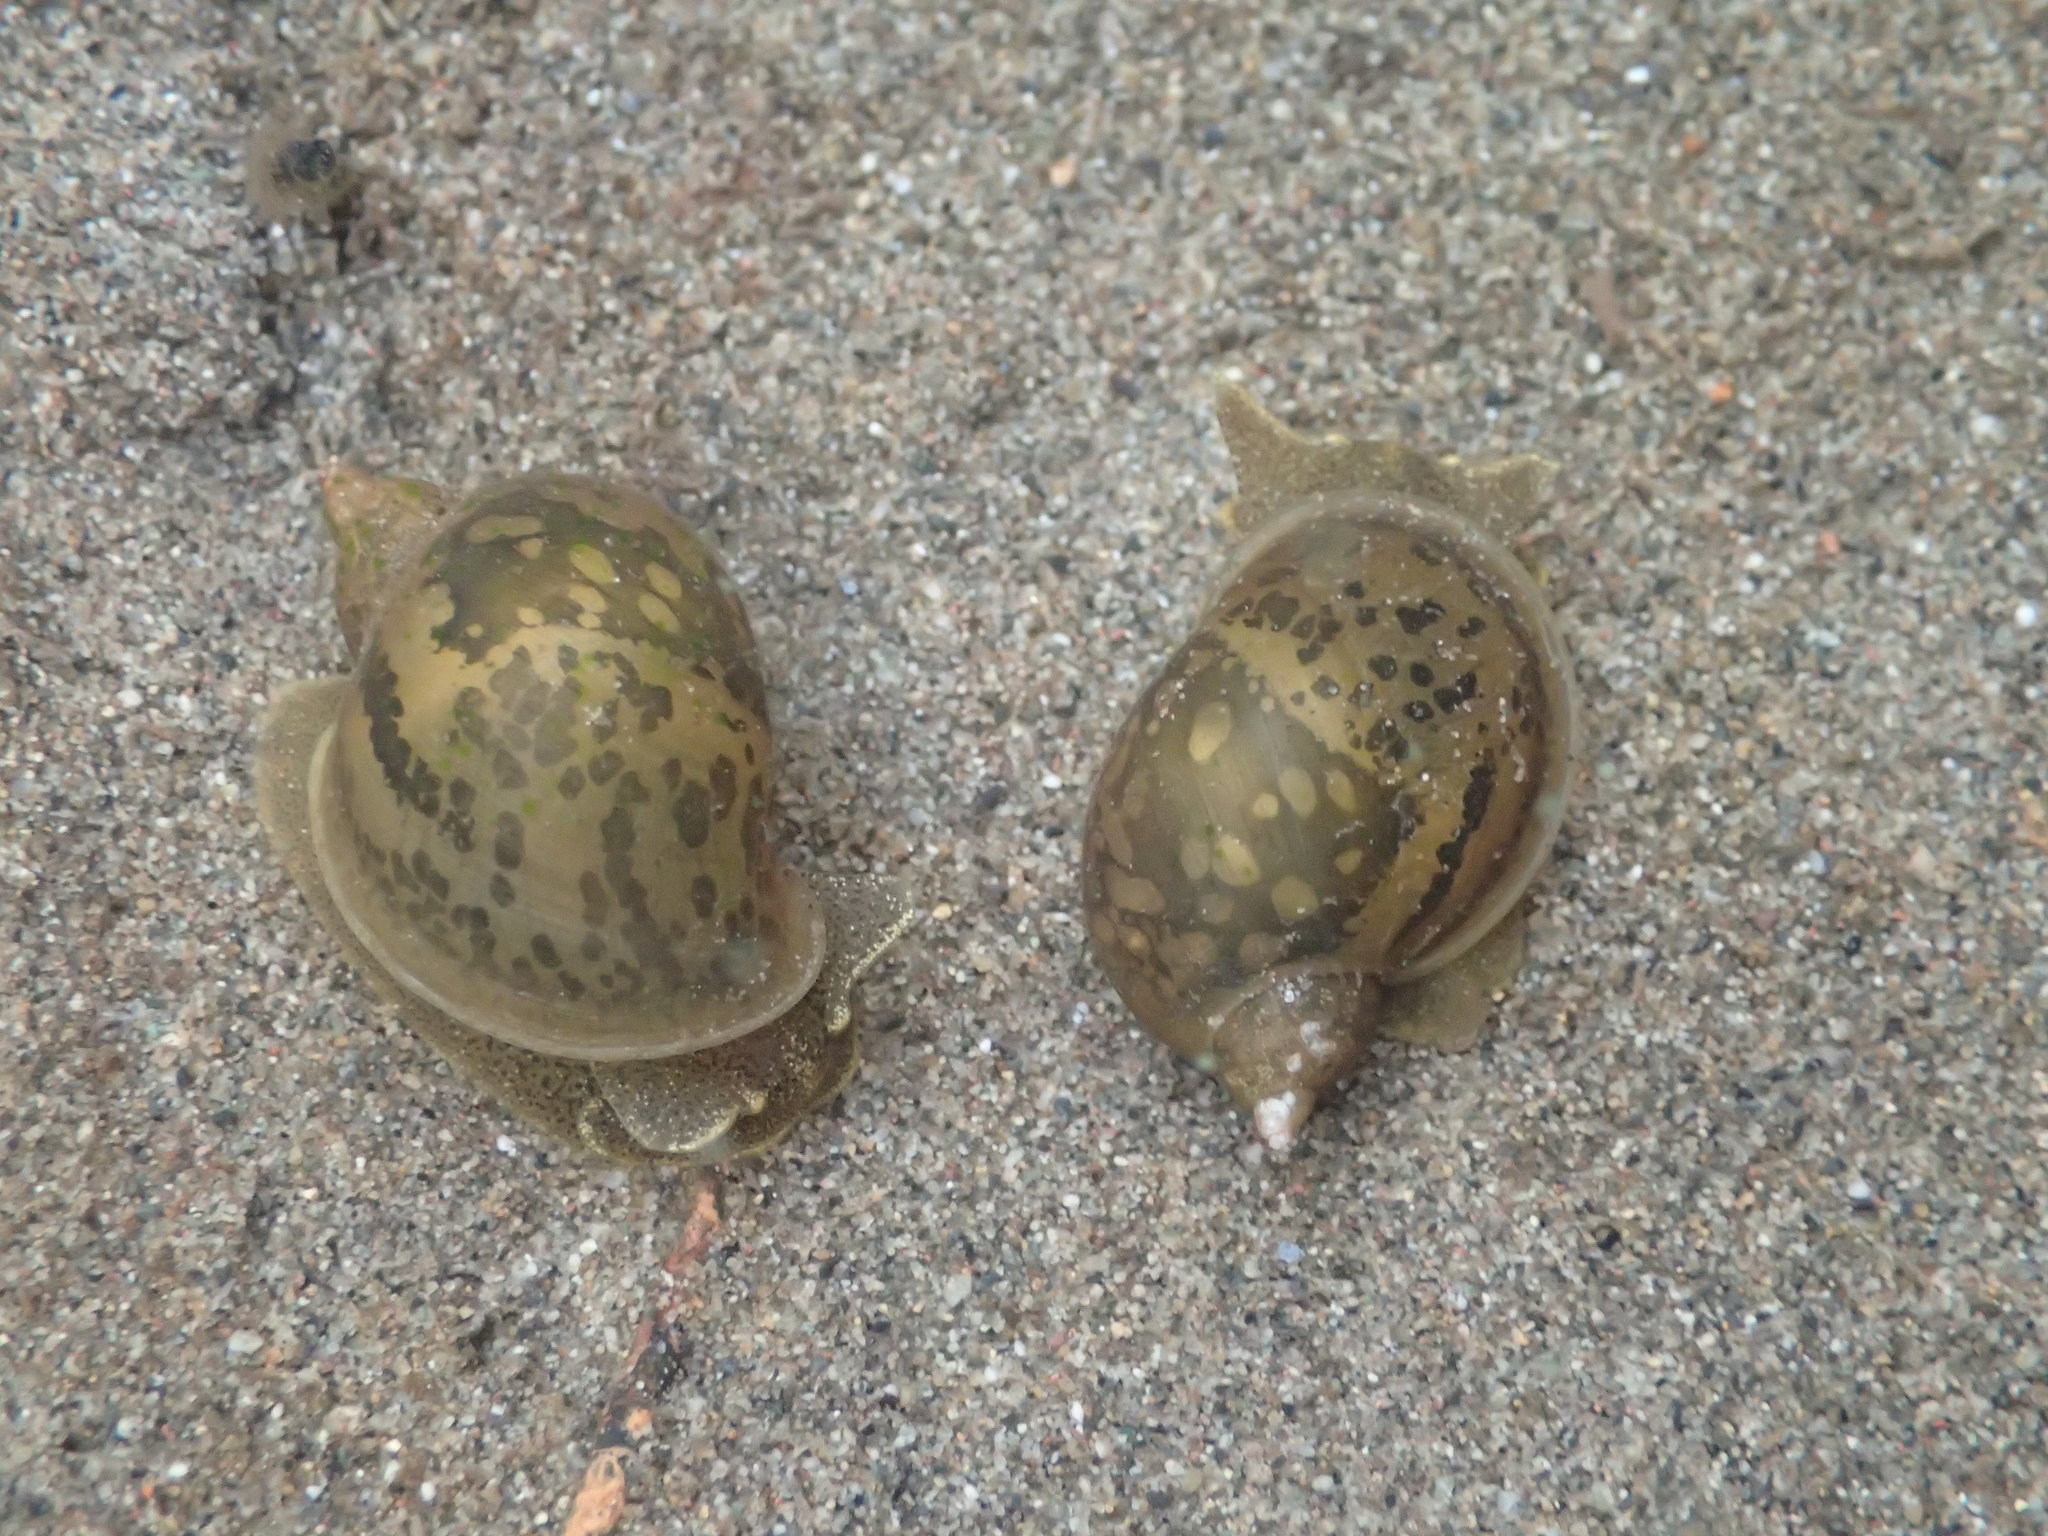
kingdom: Animalia
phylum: Mollusca
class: Gastropoda
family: Lymnaeidae
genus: Radix
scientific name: Radix auricularia
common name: Ear pond snail
